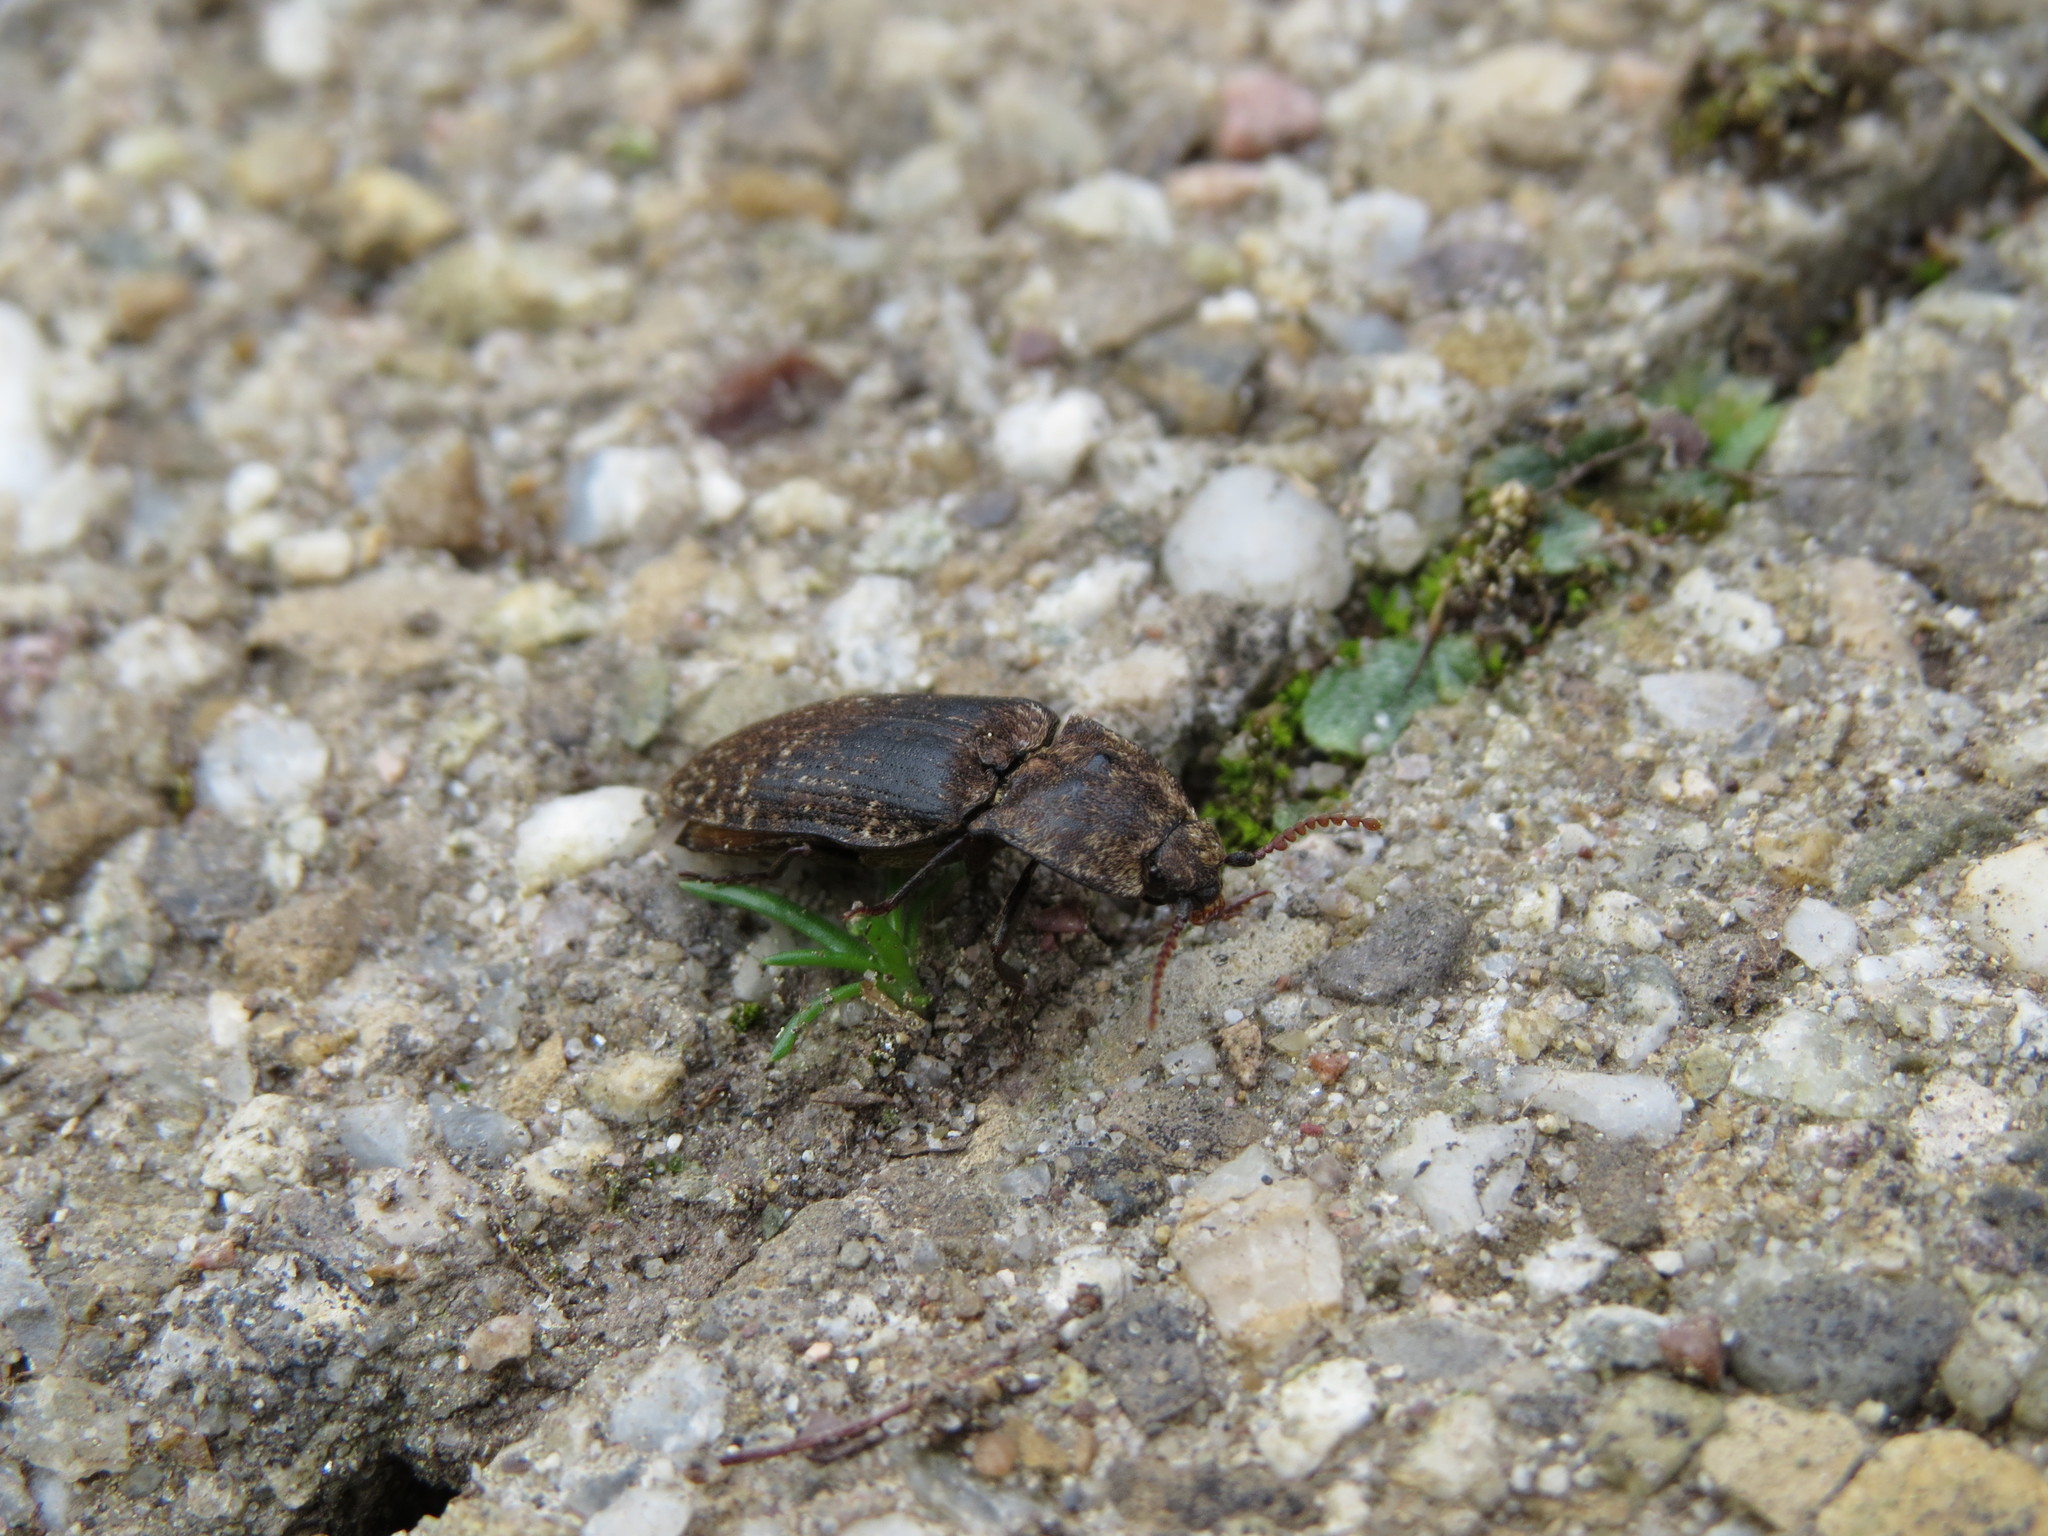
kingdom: Animalia
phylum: Arthropoda
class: Insecta
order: Coleoptera
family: Elateridae
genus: Agrypnus
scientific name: Agrypnus murinus
